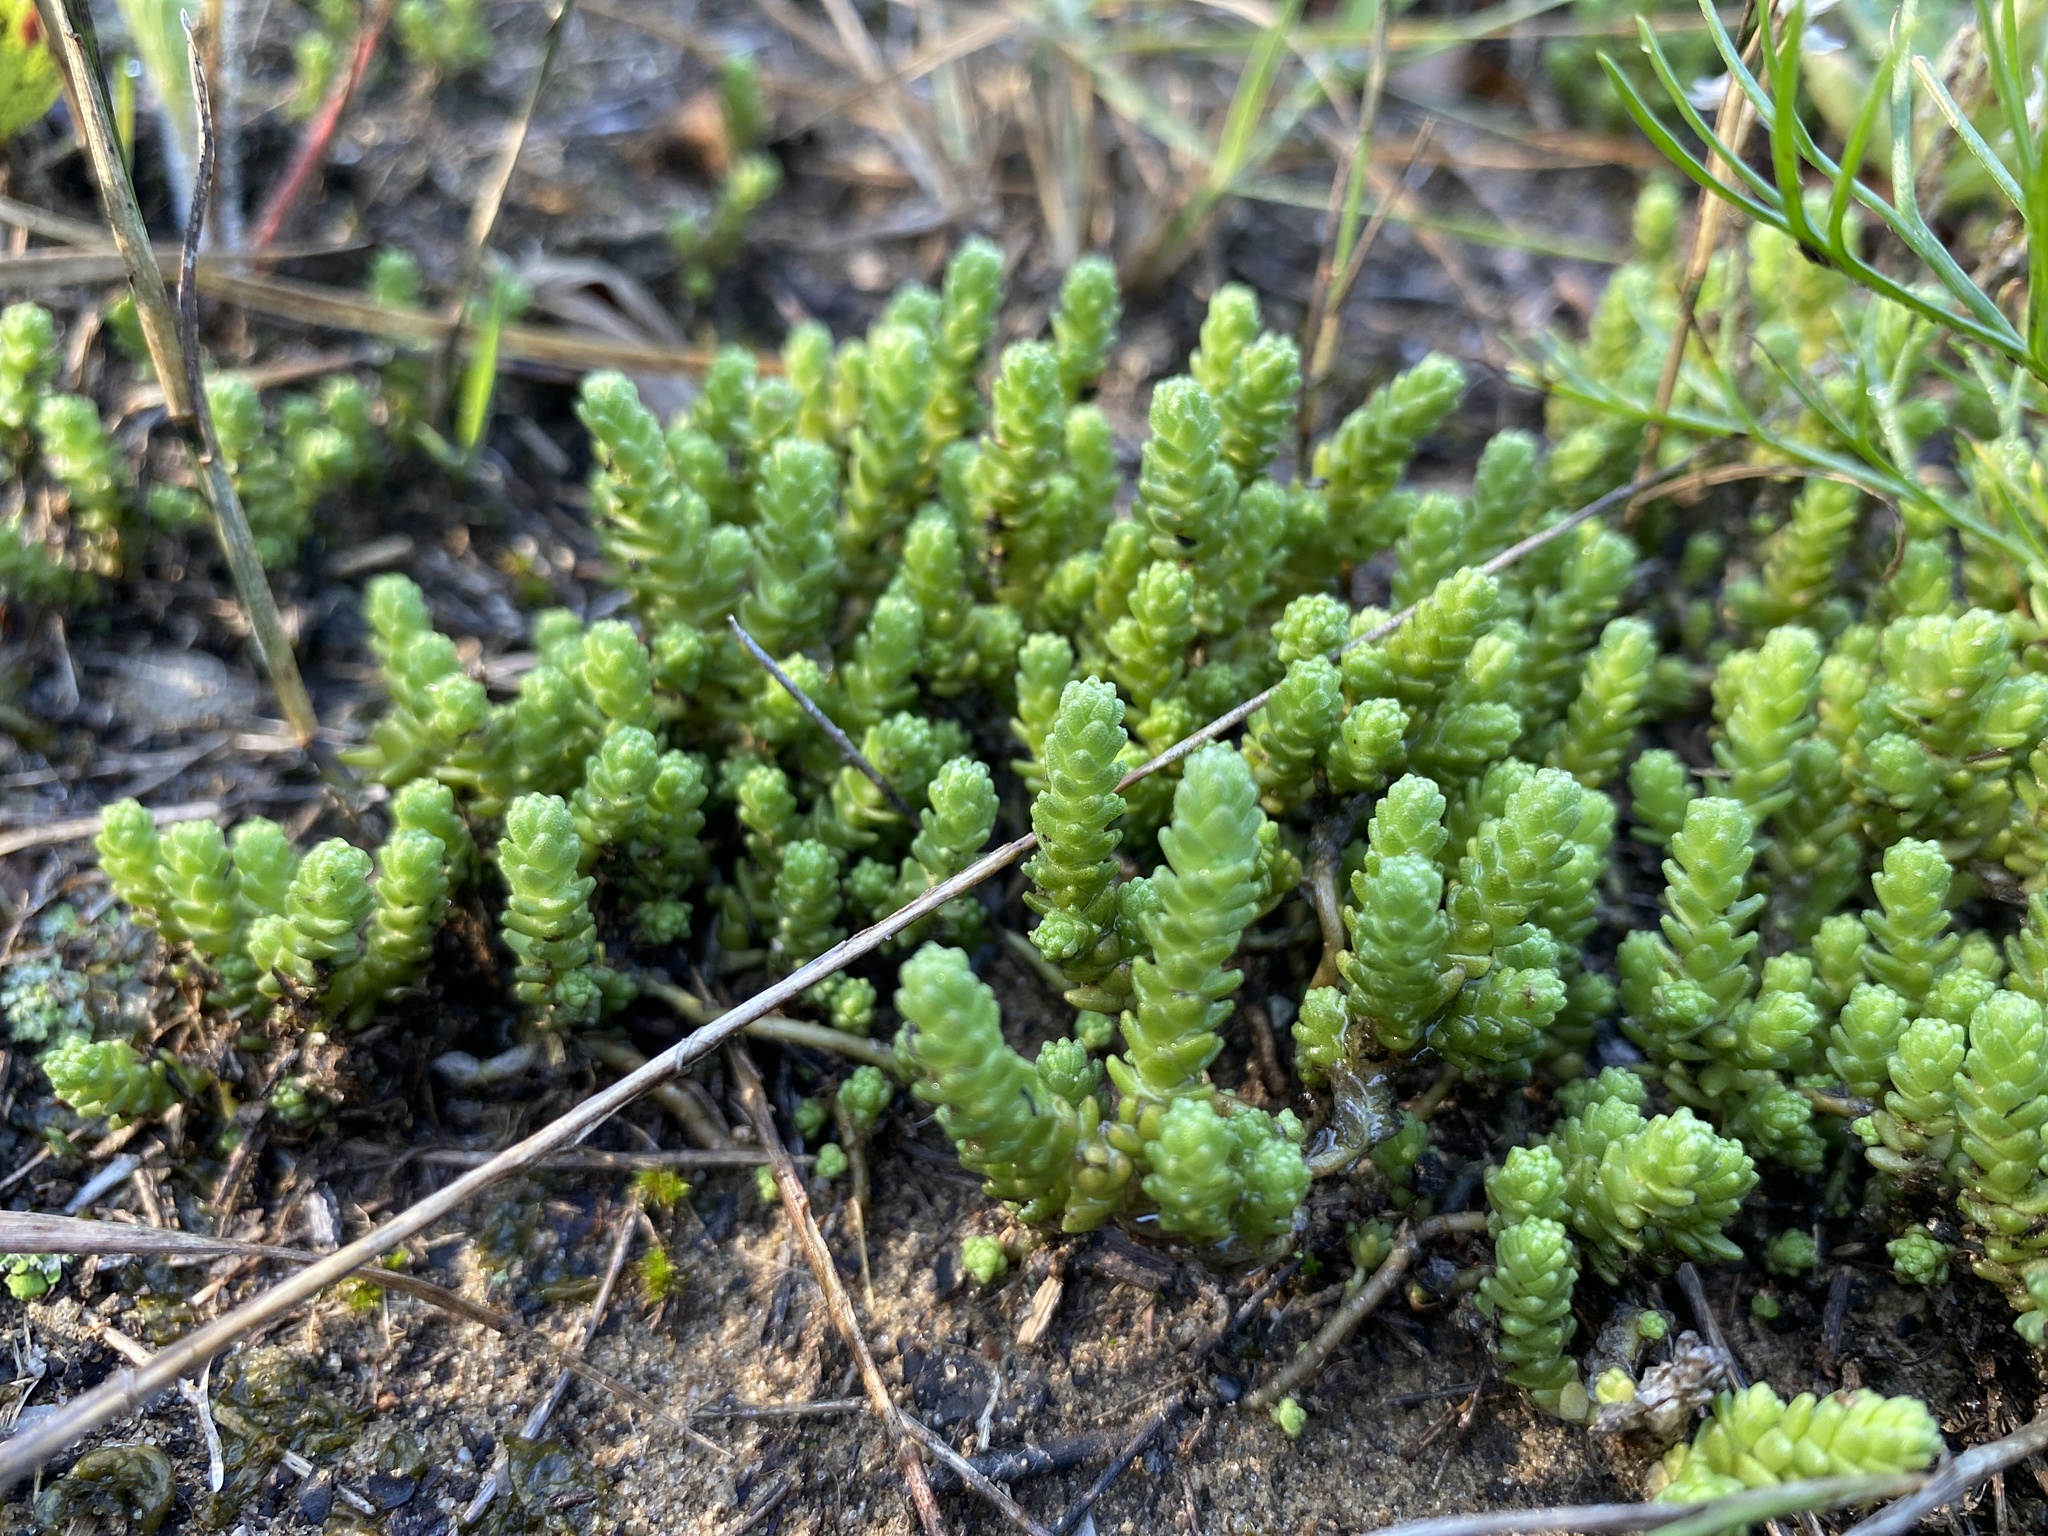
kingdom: Plantae
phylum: Tracheophyta
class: Magnoliopsida
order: Saxifragales
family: Crassulaceae
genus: Sedum
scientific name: Sedum acre
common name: Biting stonecrop
